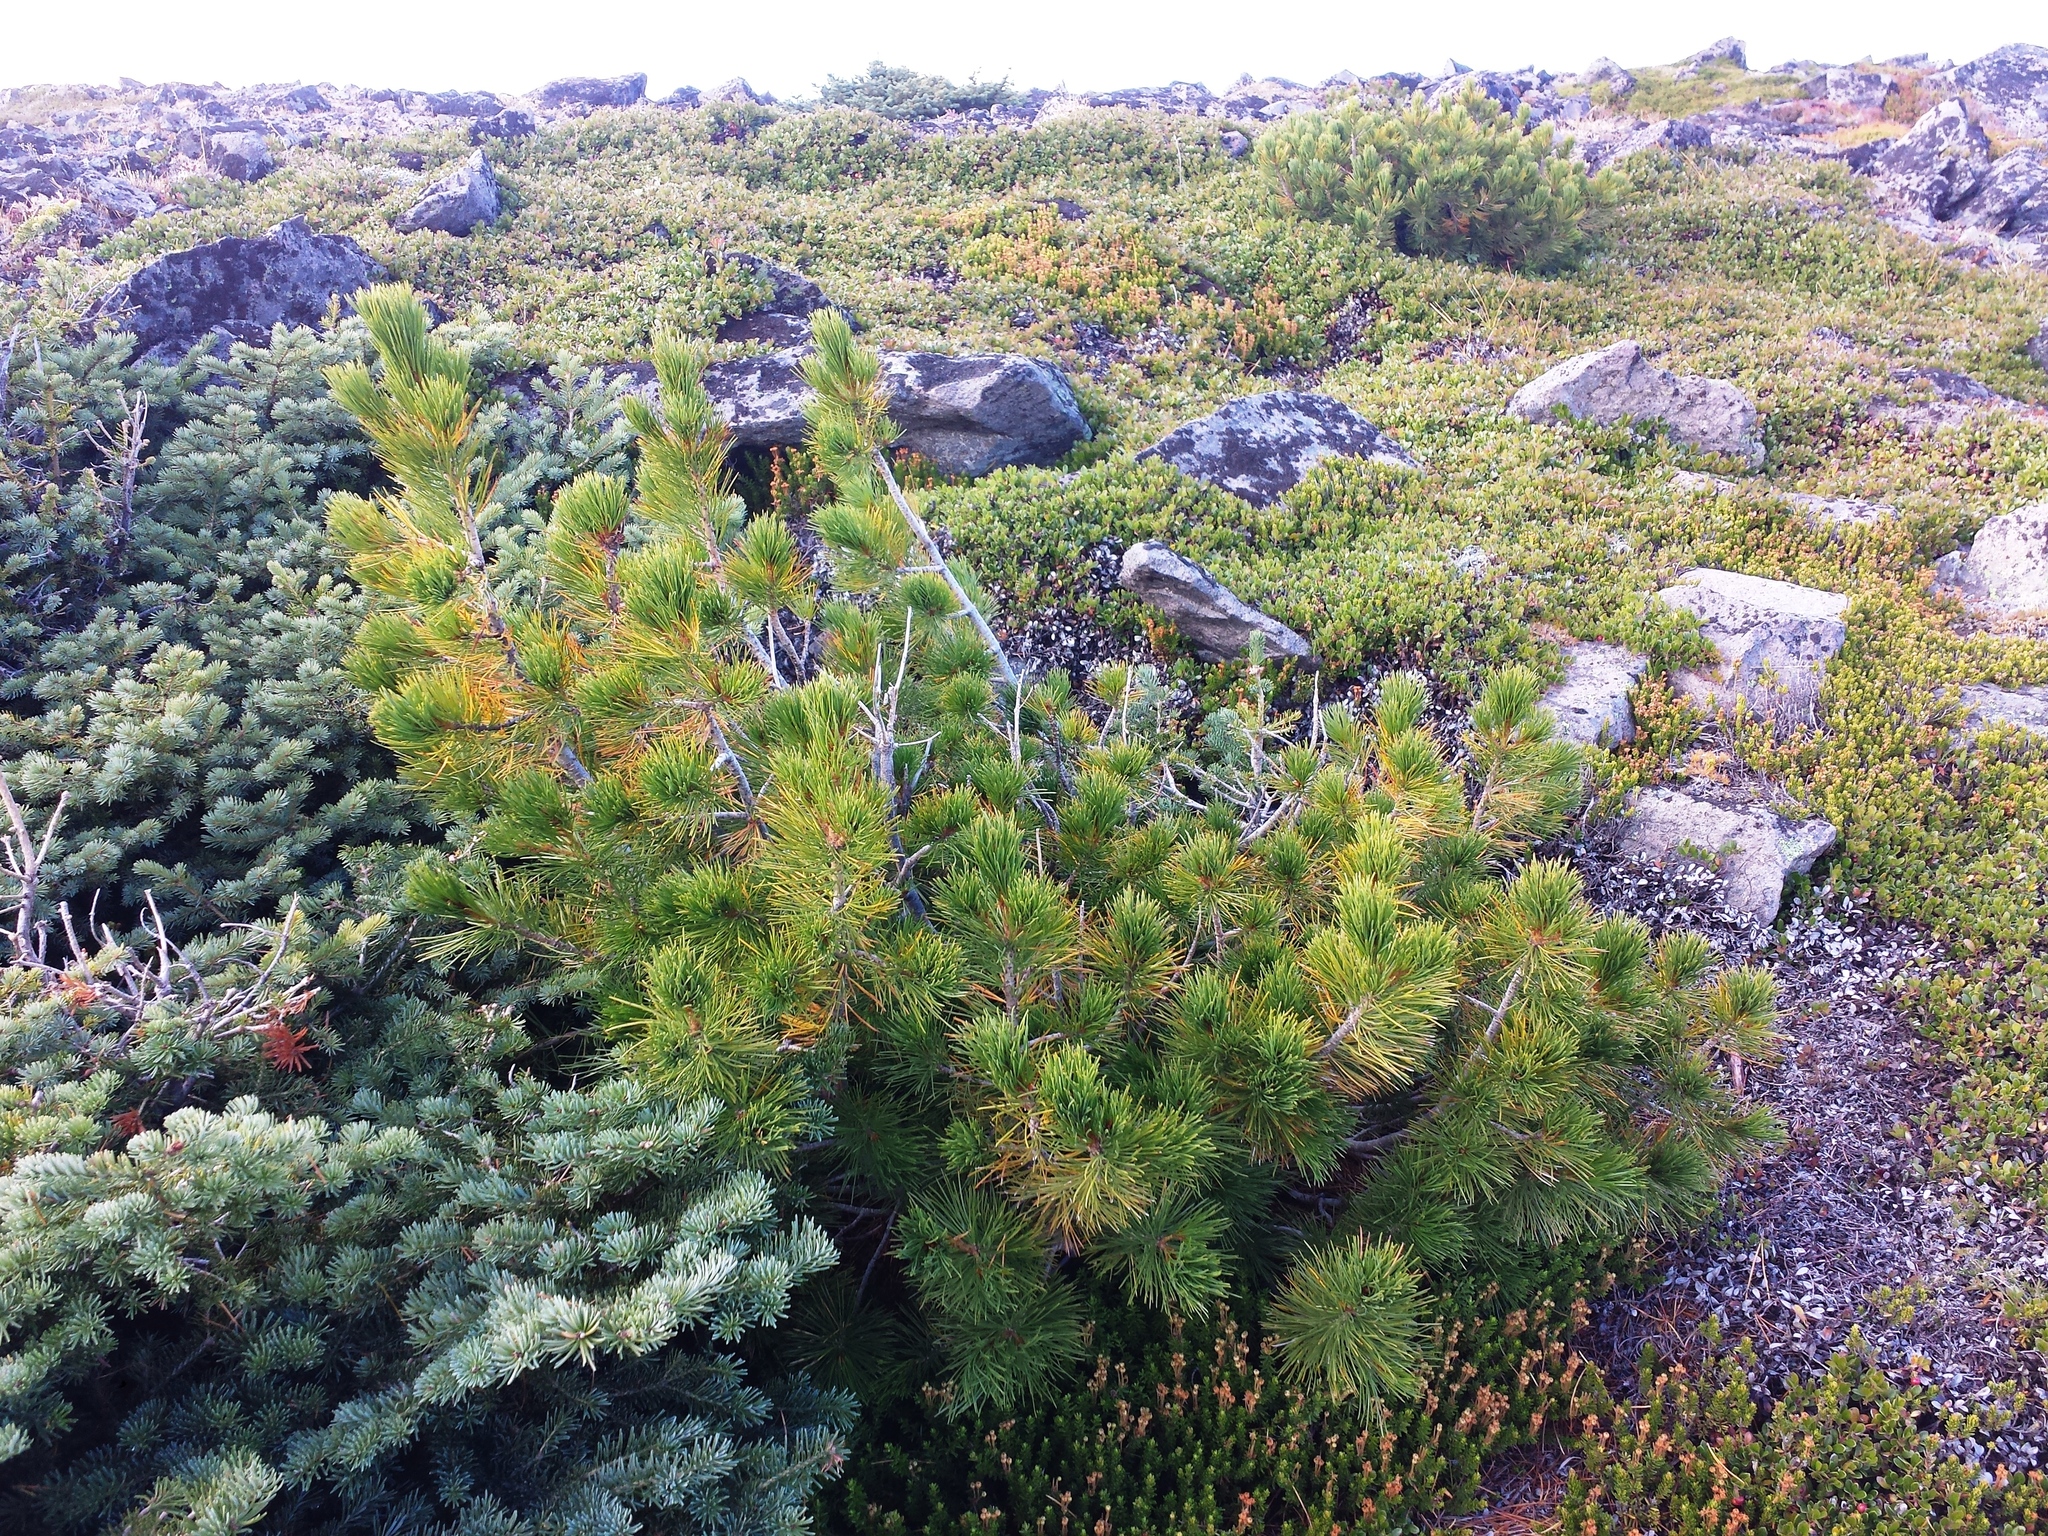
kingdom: Plantae
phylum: Tracheophyta
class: Pinopsida
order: Pinales
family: Pinaceae
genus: Abies
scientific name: Abies lasiocarpa
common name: Subalpine fir
